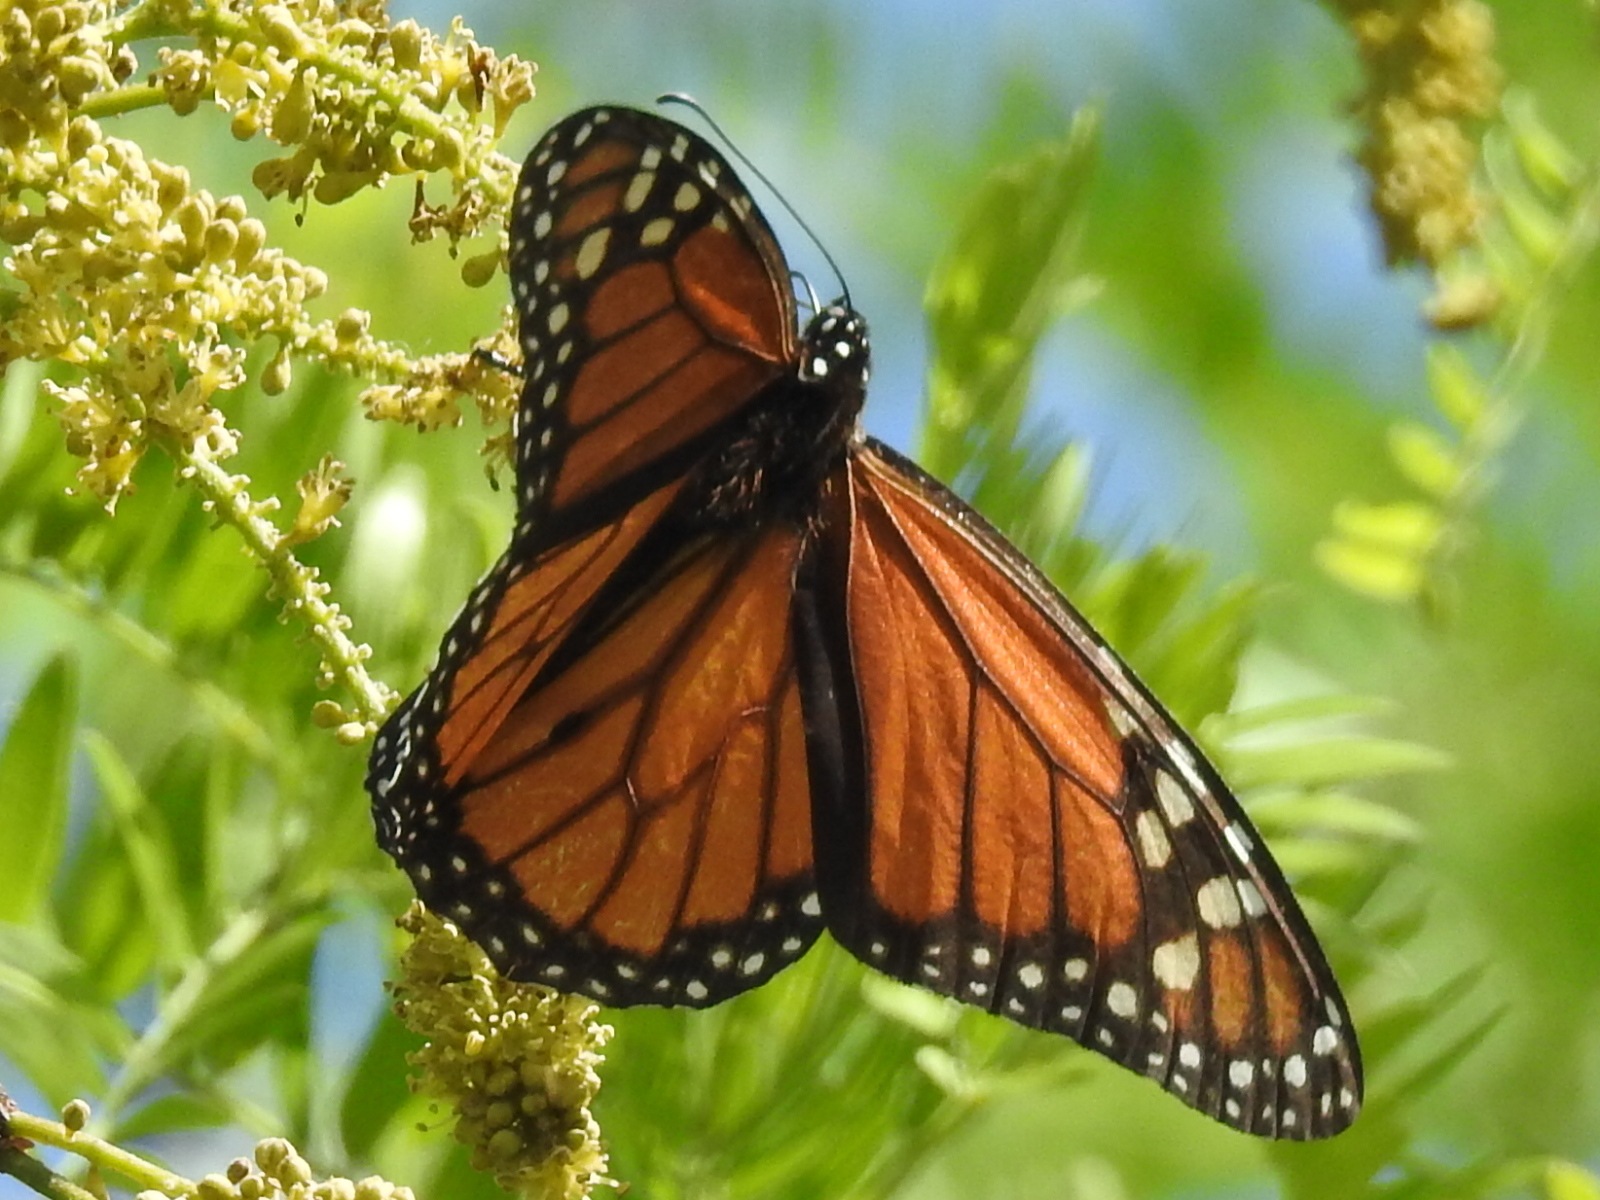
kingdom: Animalia
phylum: Arthropoda
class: Insecta
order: Lepidoptera
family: Nymphalidae
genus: Danaus
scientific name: Danaus plexippus
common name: Monarch
